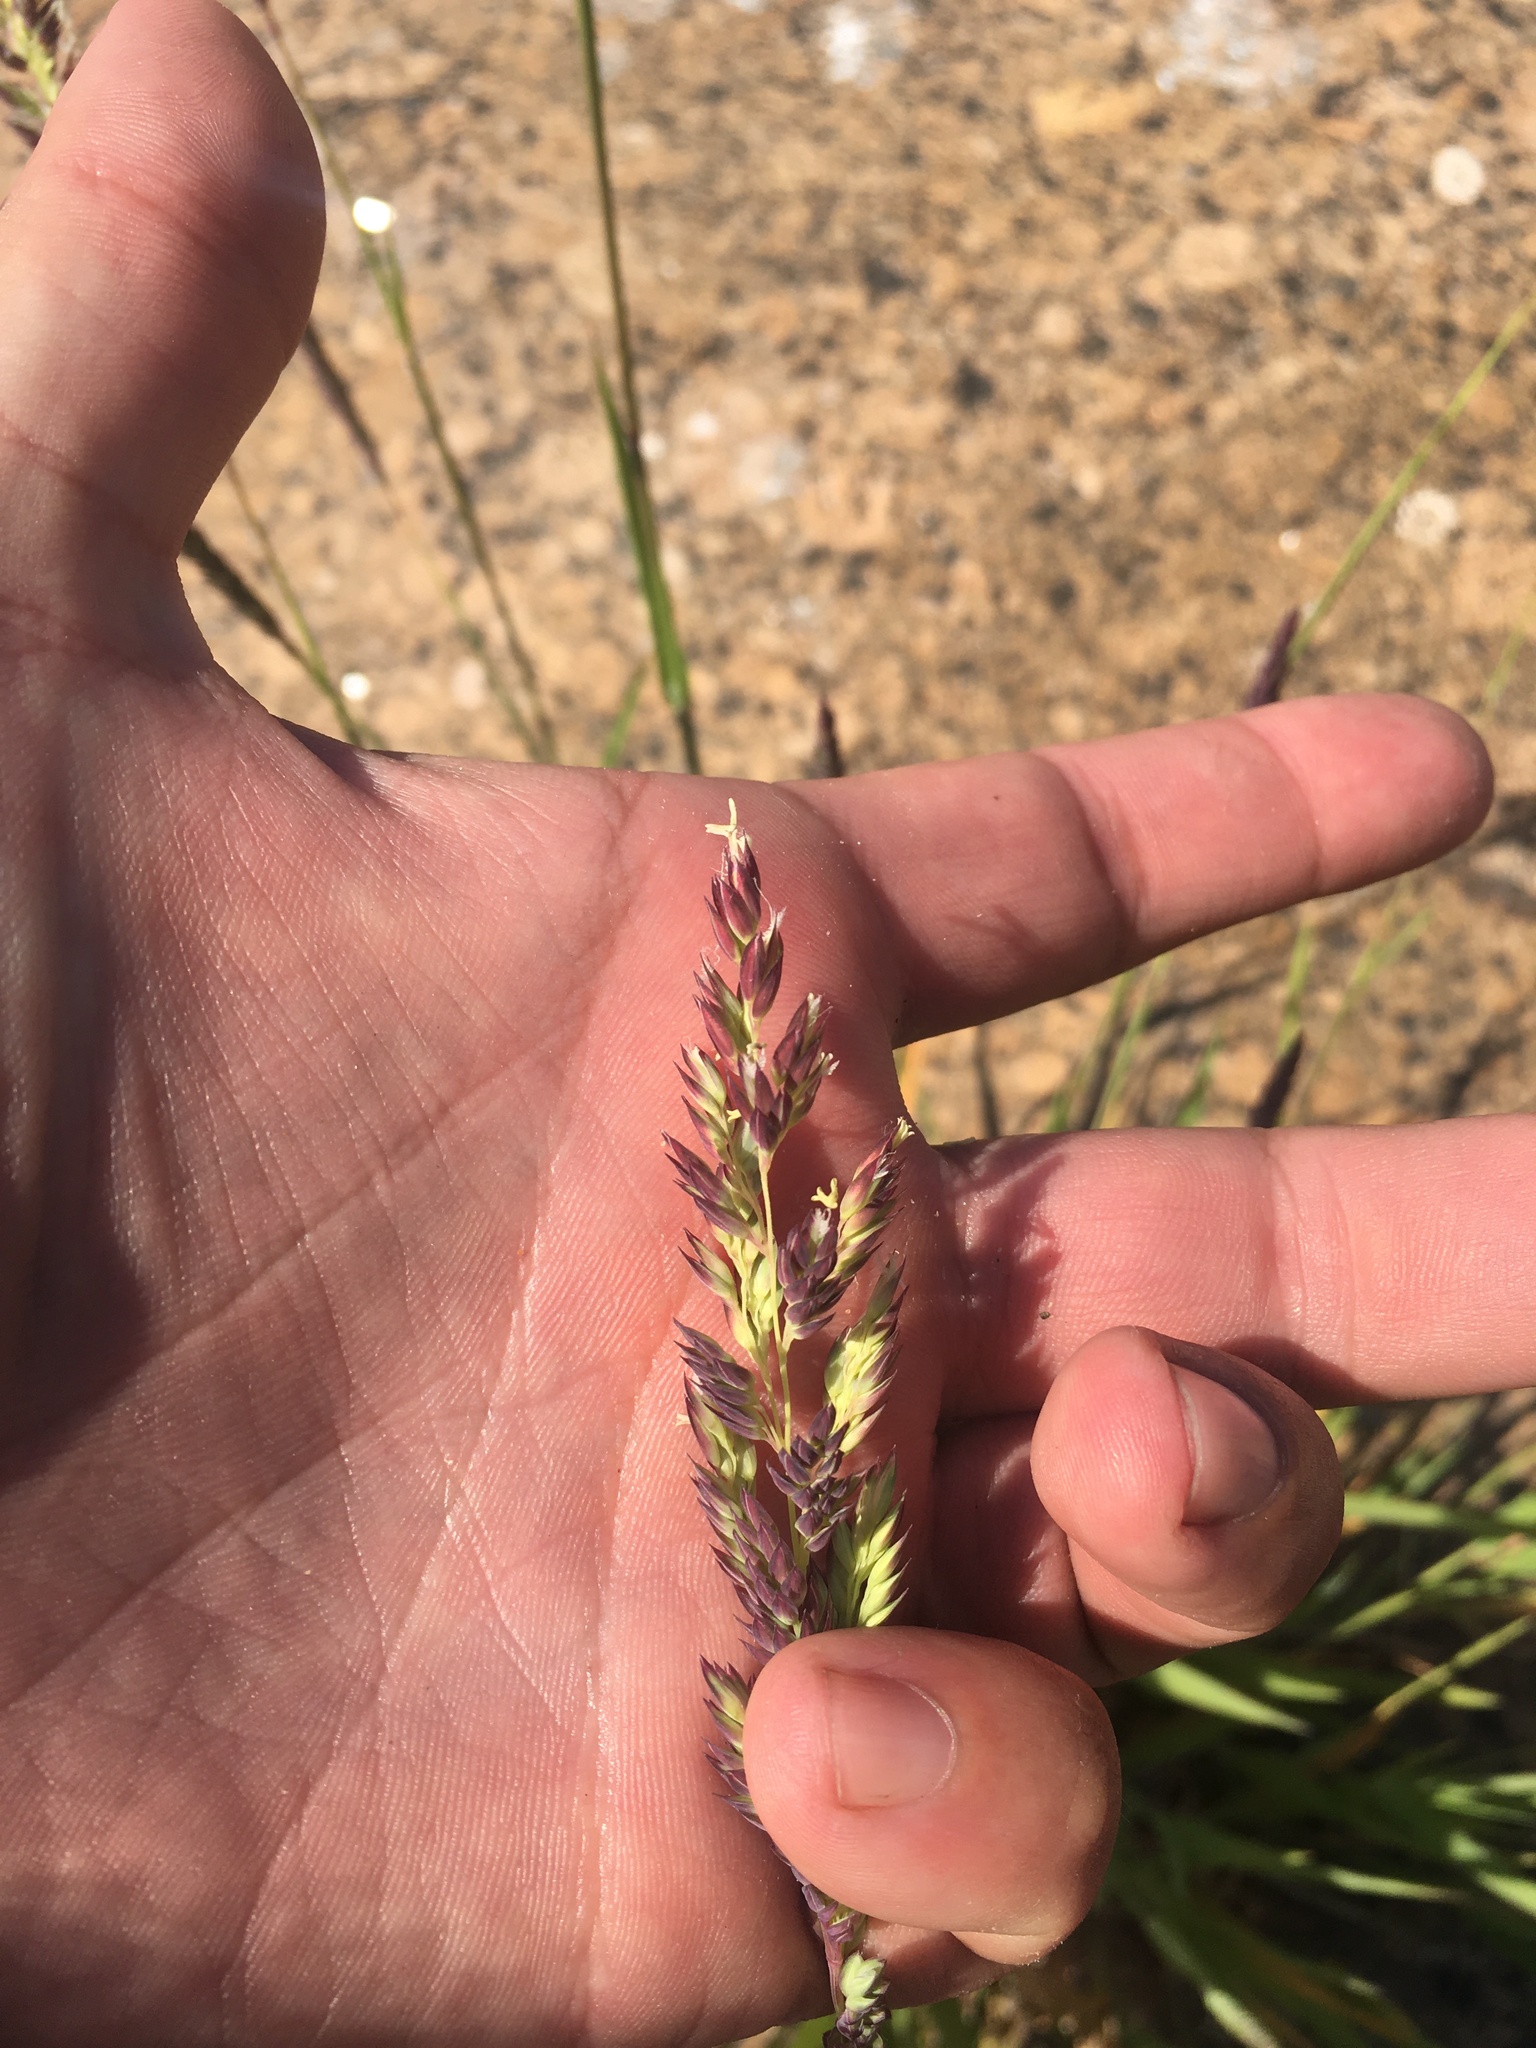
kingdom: Plantae
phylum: Tracheophyta
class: Liliopsida
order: Poales
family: Poaceae
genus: Phalaris
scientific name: Phalaris arundinacea
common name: Reed canary-grass
